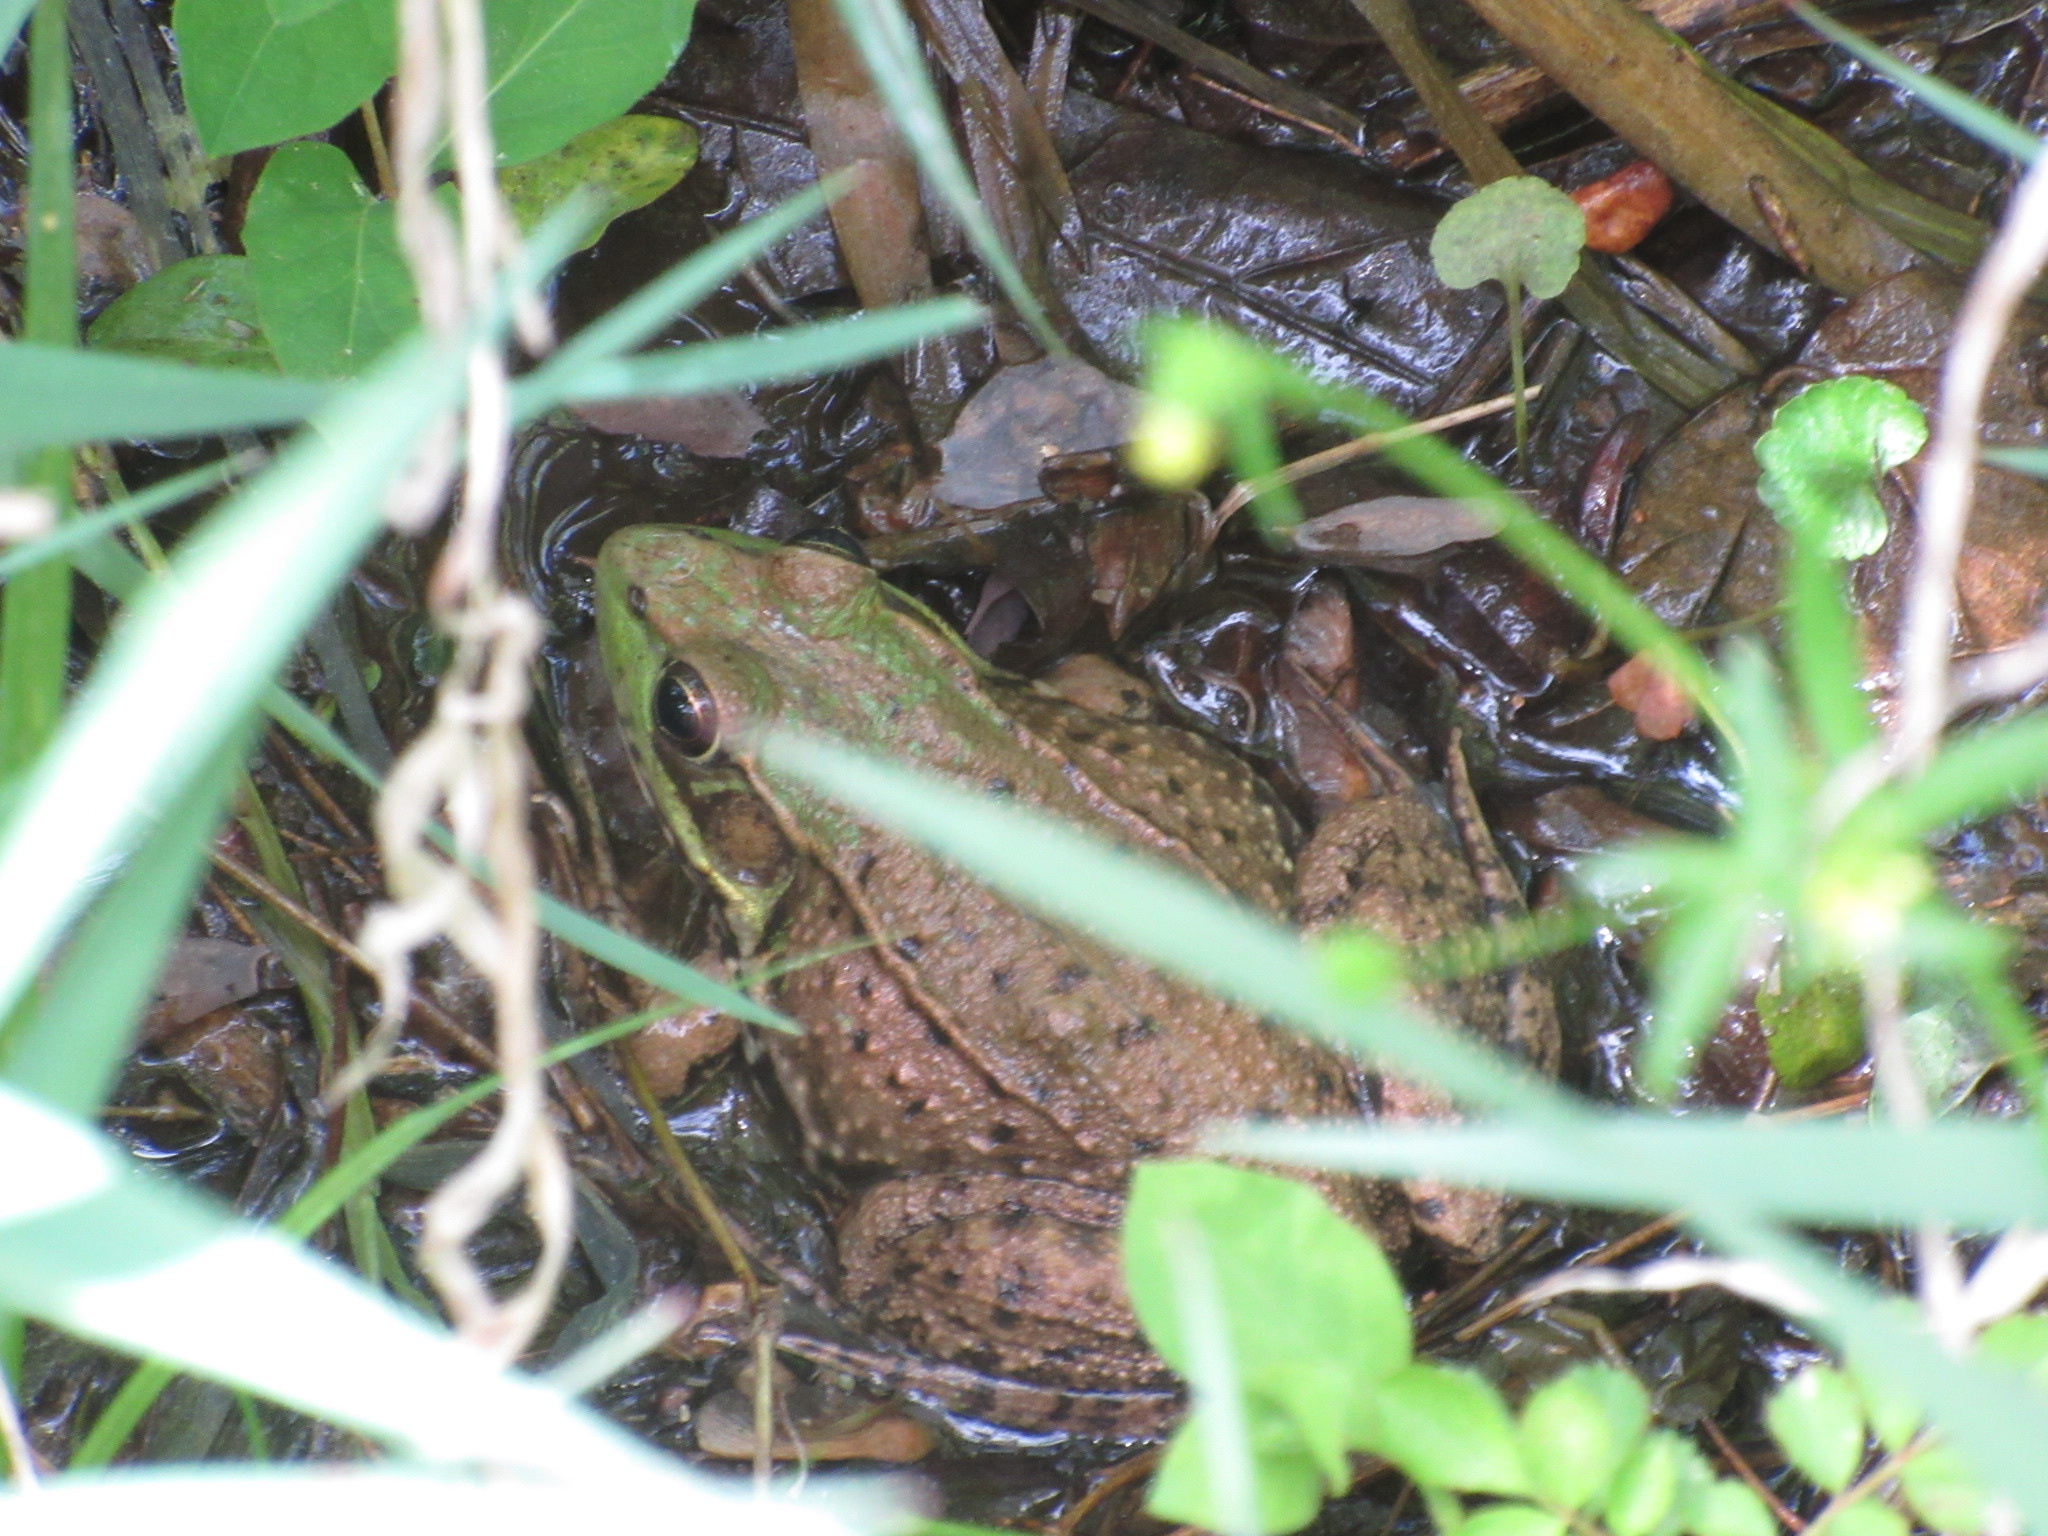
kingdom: Animalia
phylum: Chordata
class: Amphibia
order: Anura
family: Ranidae
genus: Lithobates
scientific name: Lithobates clamitans
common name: Green frog
